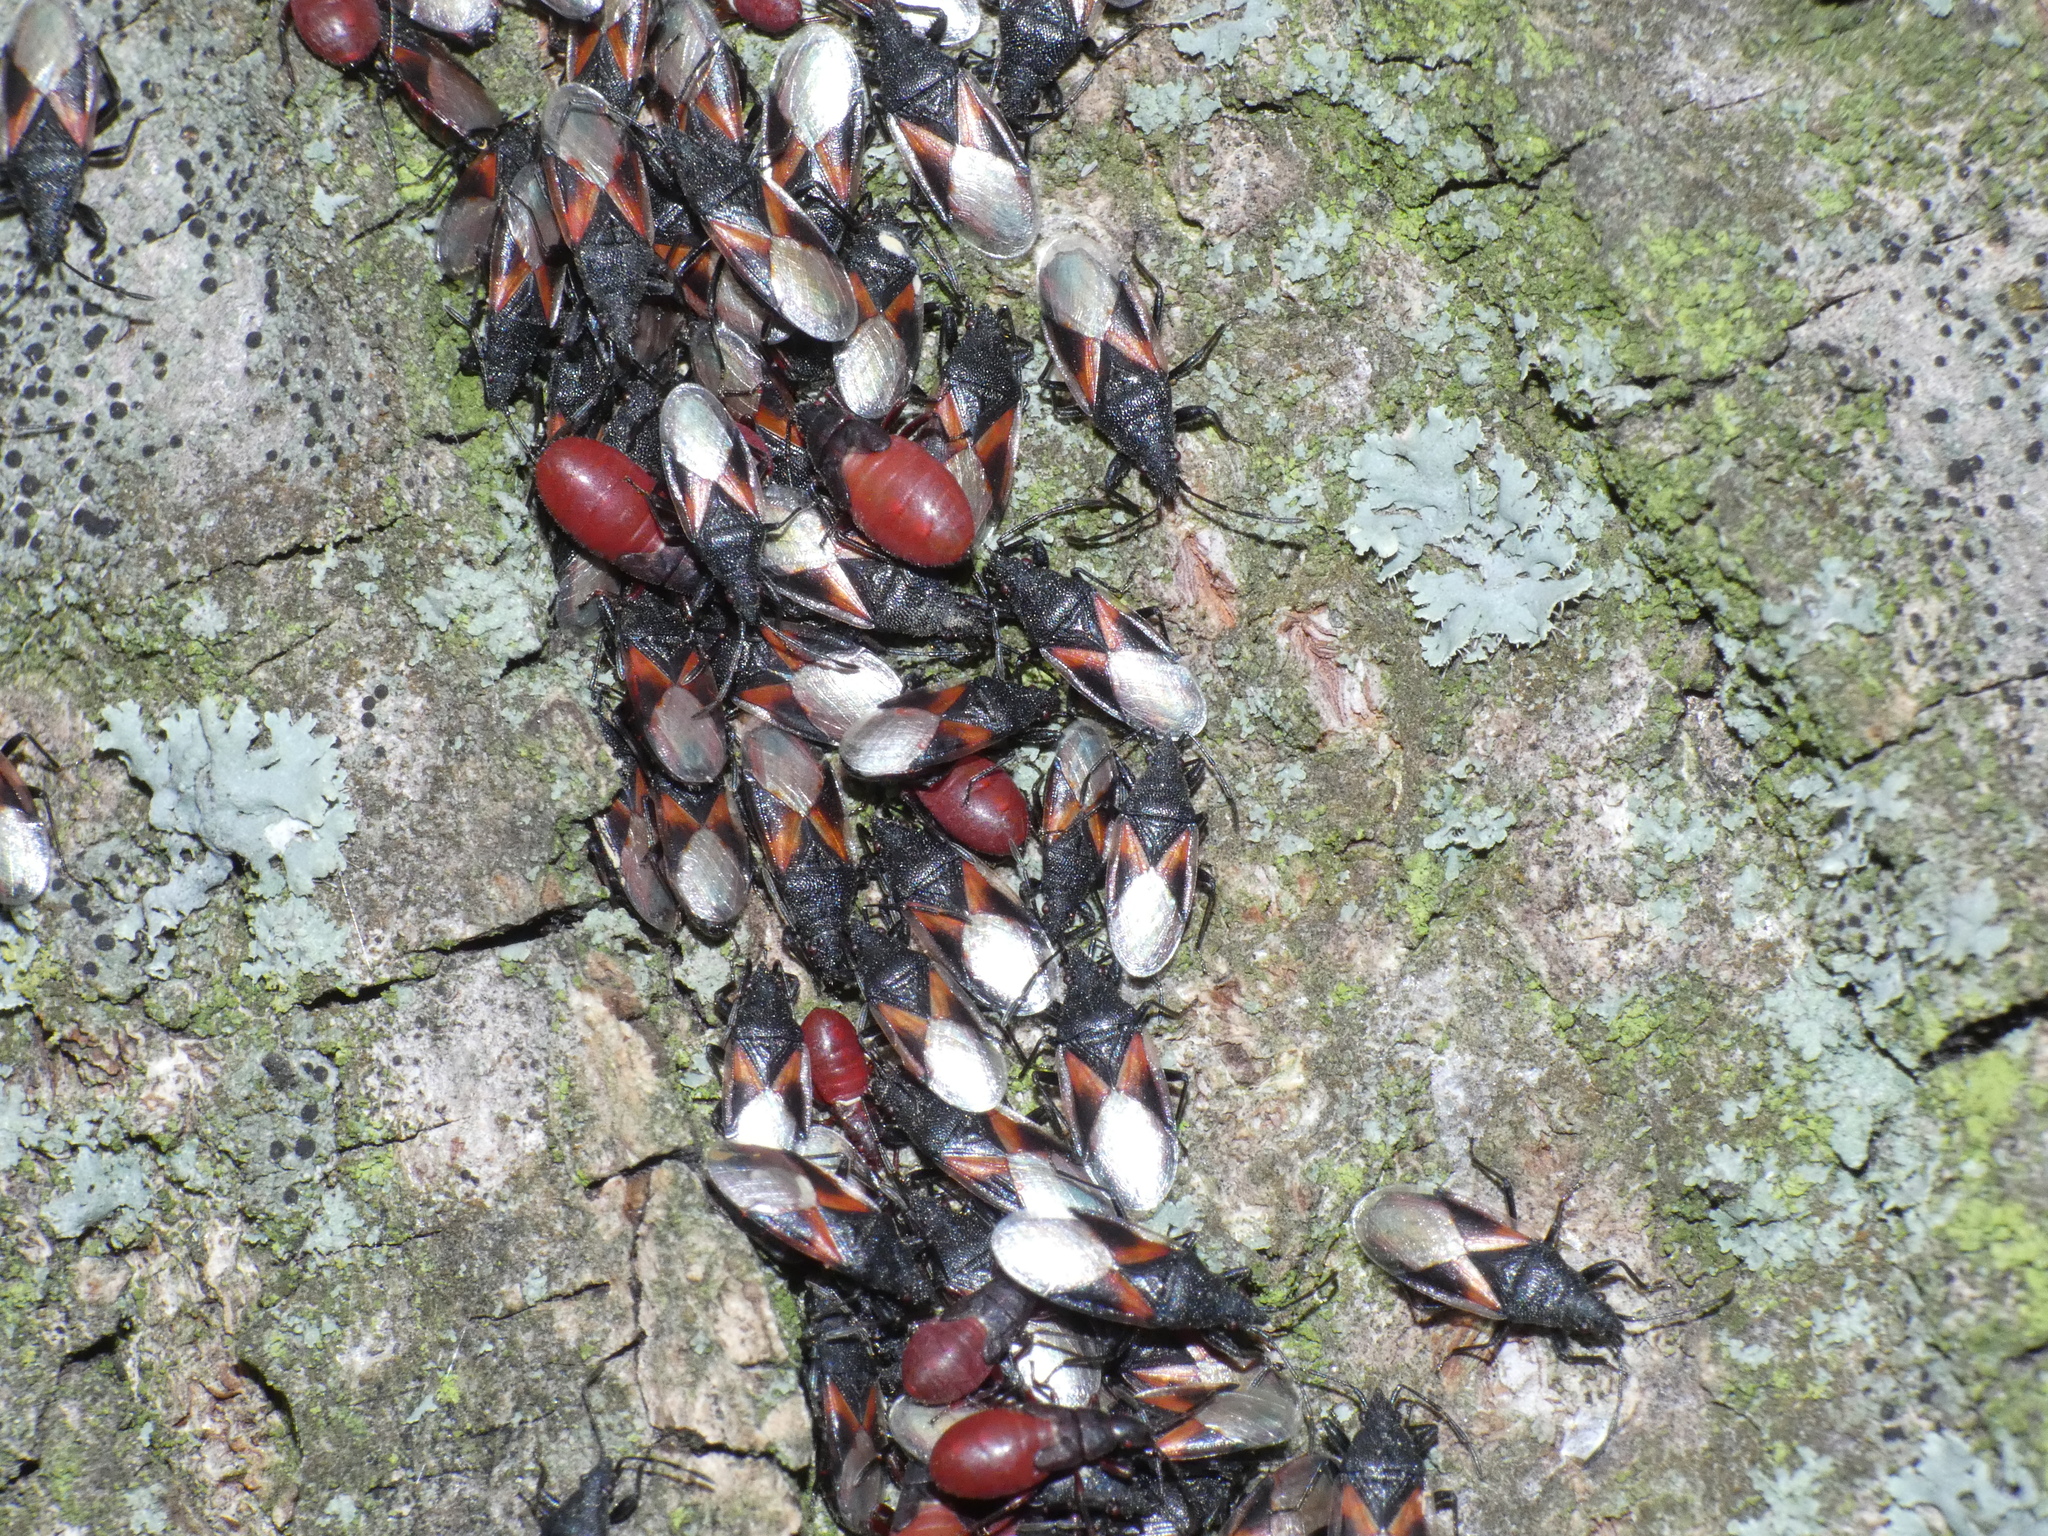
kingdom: Animalia
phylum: Arthropoda
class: Insecta
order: Hemiptera
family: Oxycarenidae
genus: Oxycarenus
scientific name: Oxycarenus lavaterae
